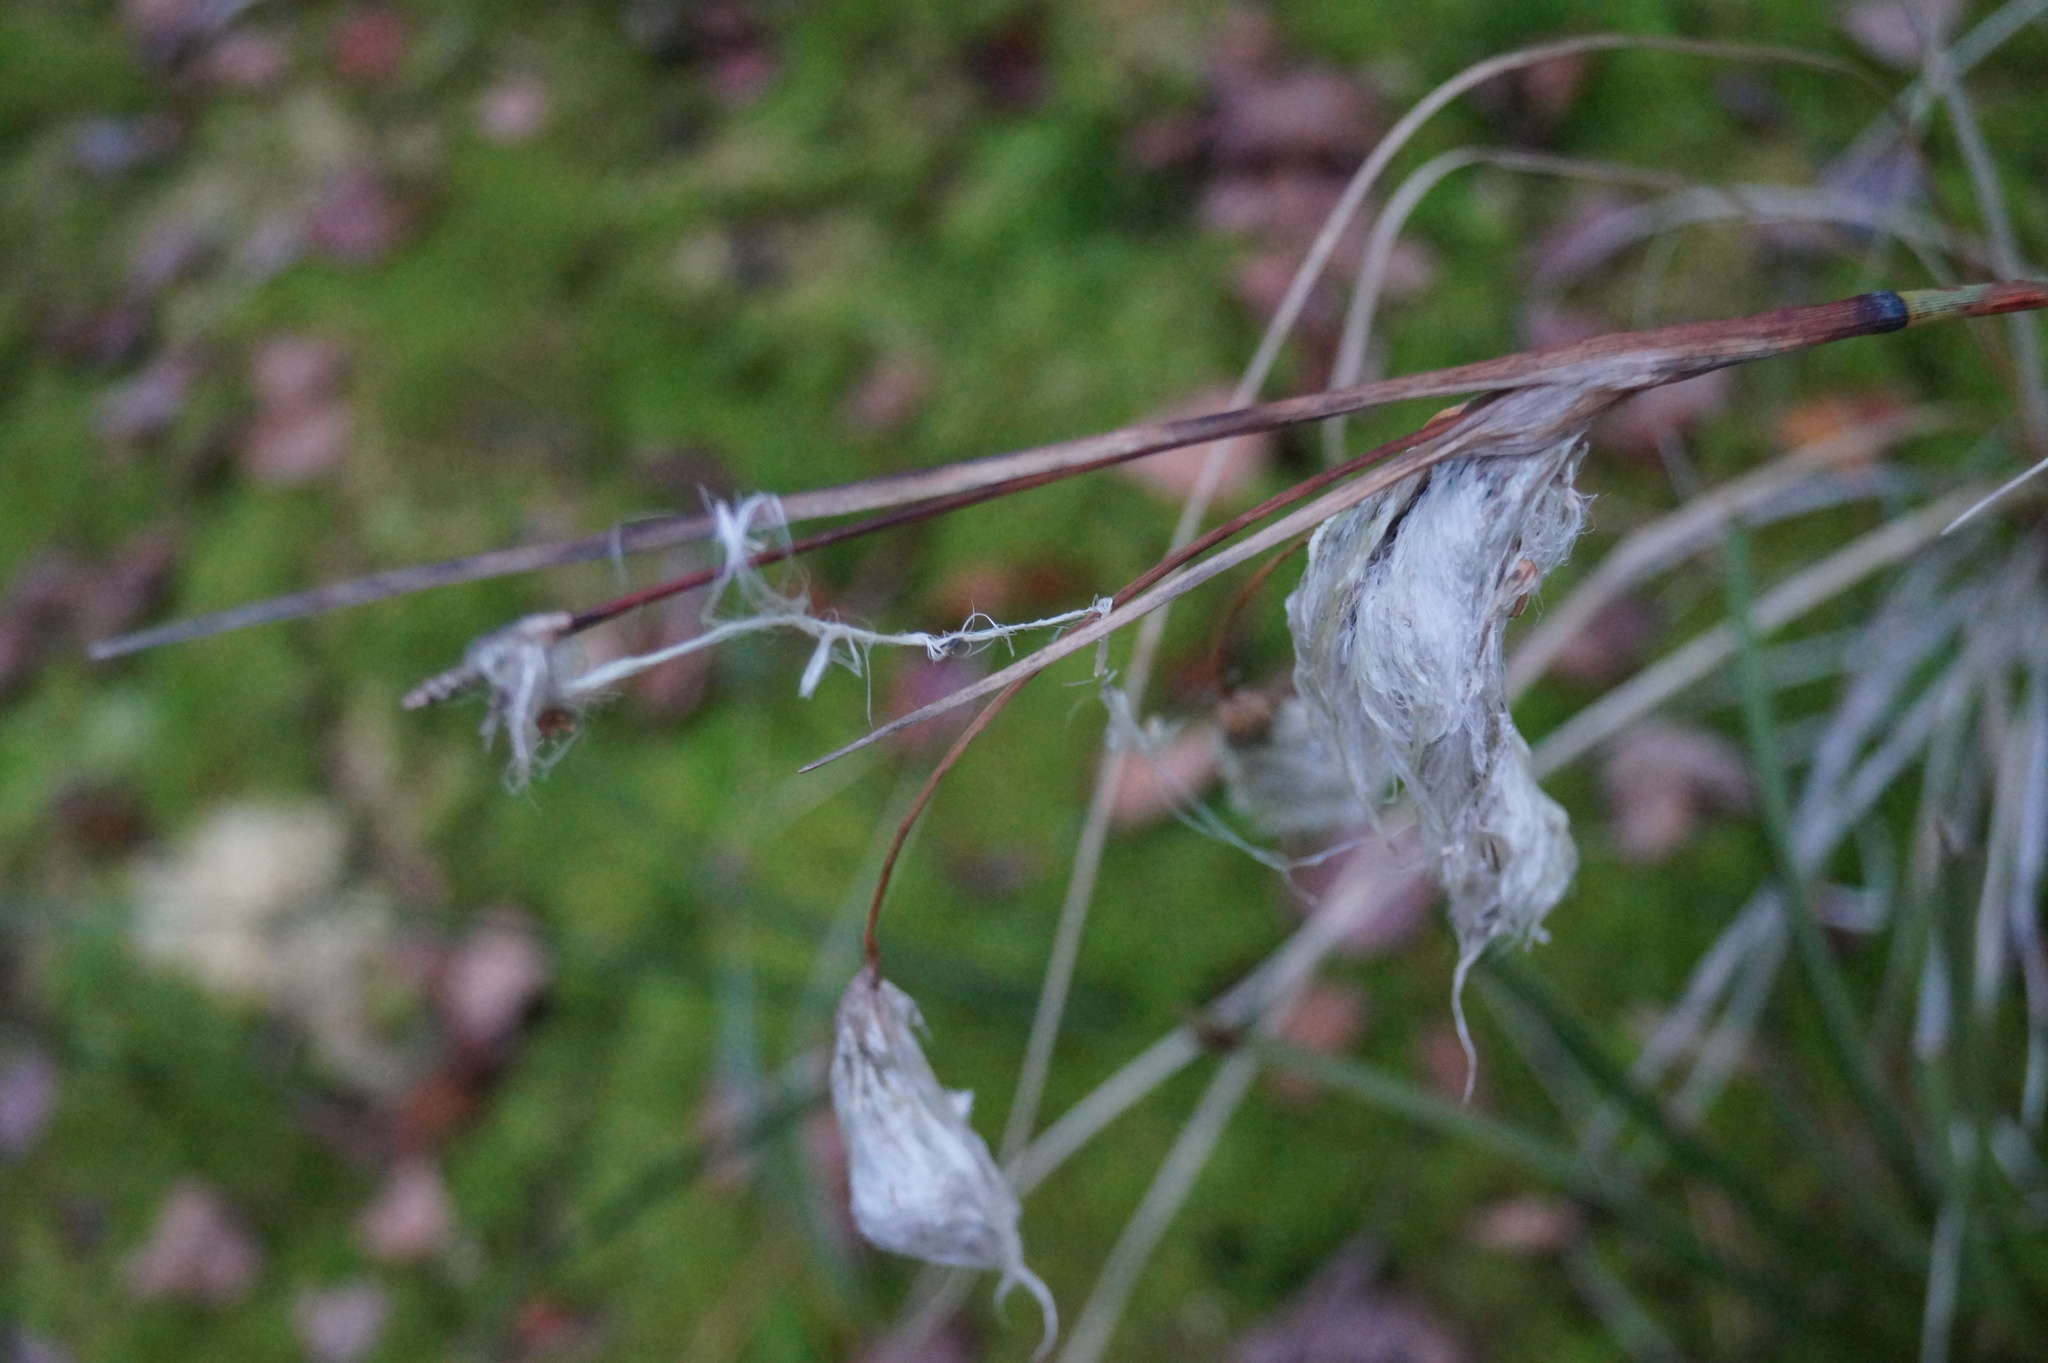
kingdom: Plantae
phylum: Tracheophyta
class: Liliopsida
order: Poales
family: Cyperaceae
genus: Eriophorum
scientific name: Eriophorum angustifolium
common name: Common cottongrass
